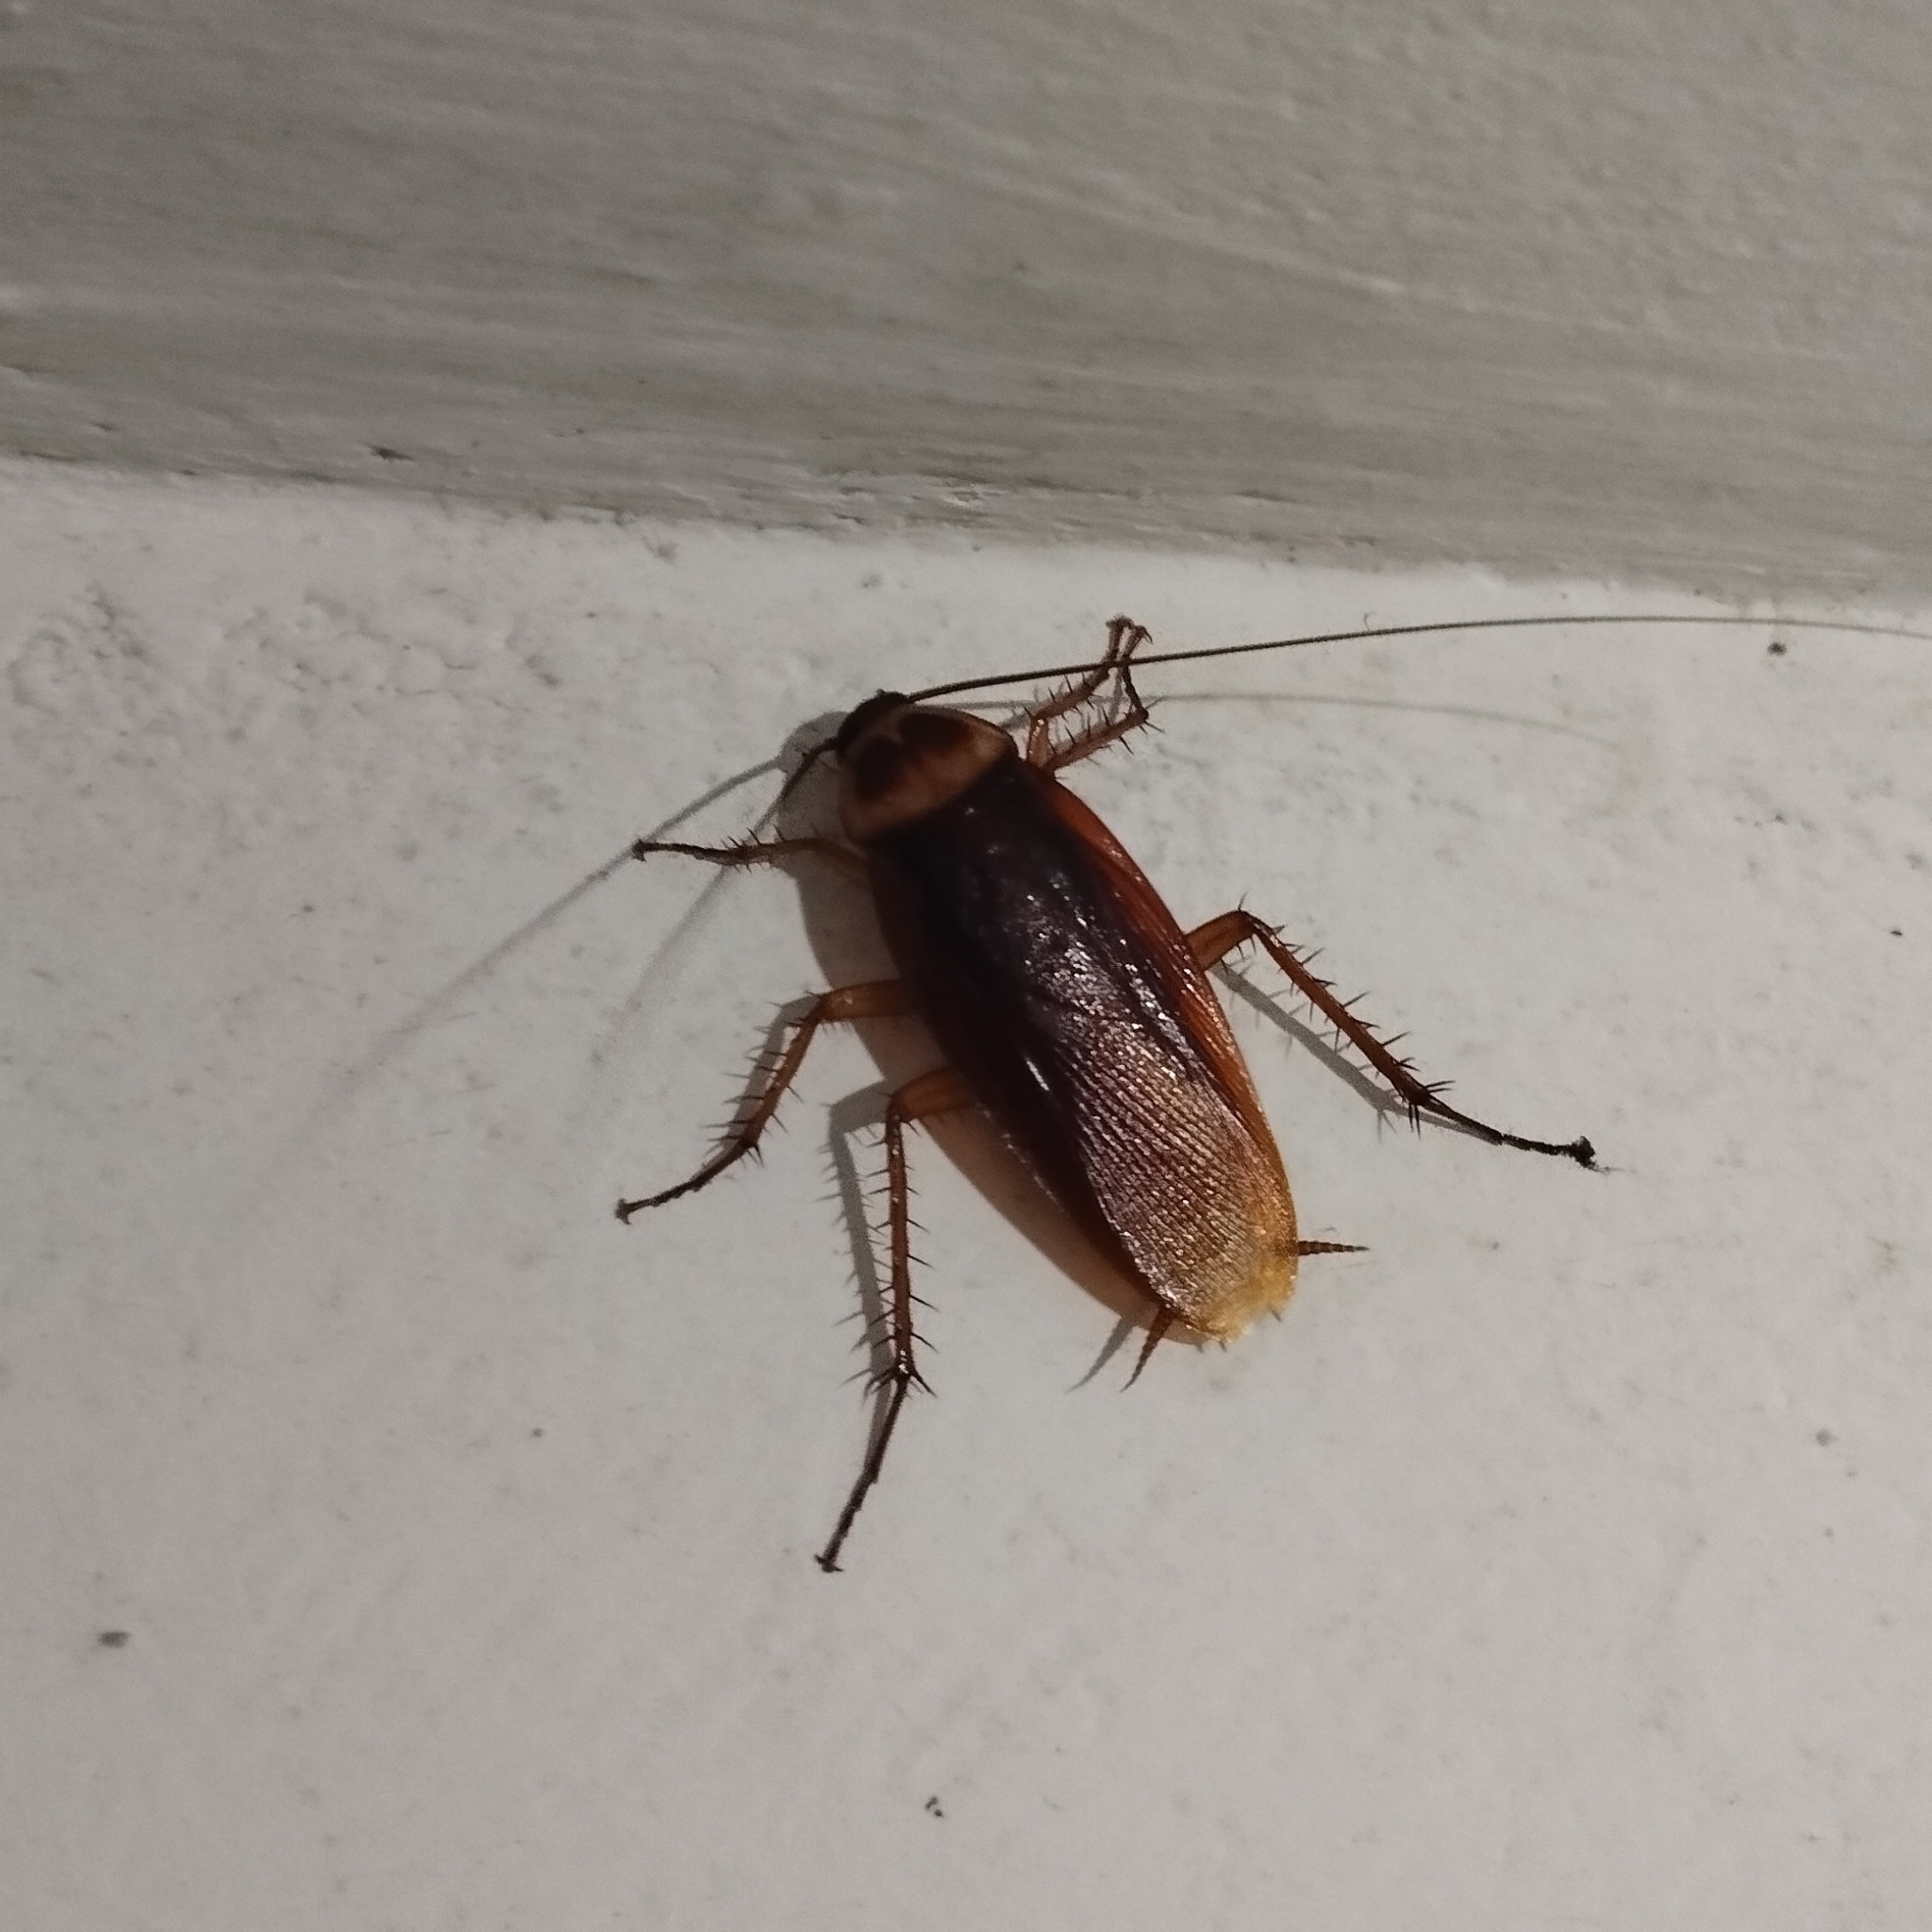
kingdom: Animalia
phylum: Arthropoda
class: Insecta
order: Blattodea
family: Blattidae
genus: Periplaneta
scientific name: Periplaneta americana
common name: American cockroach
